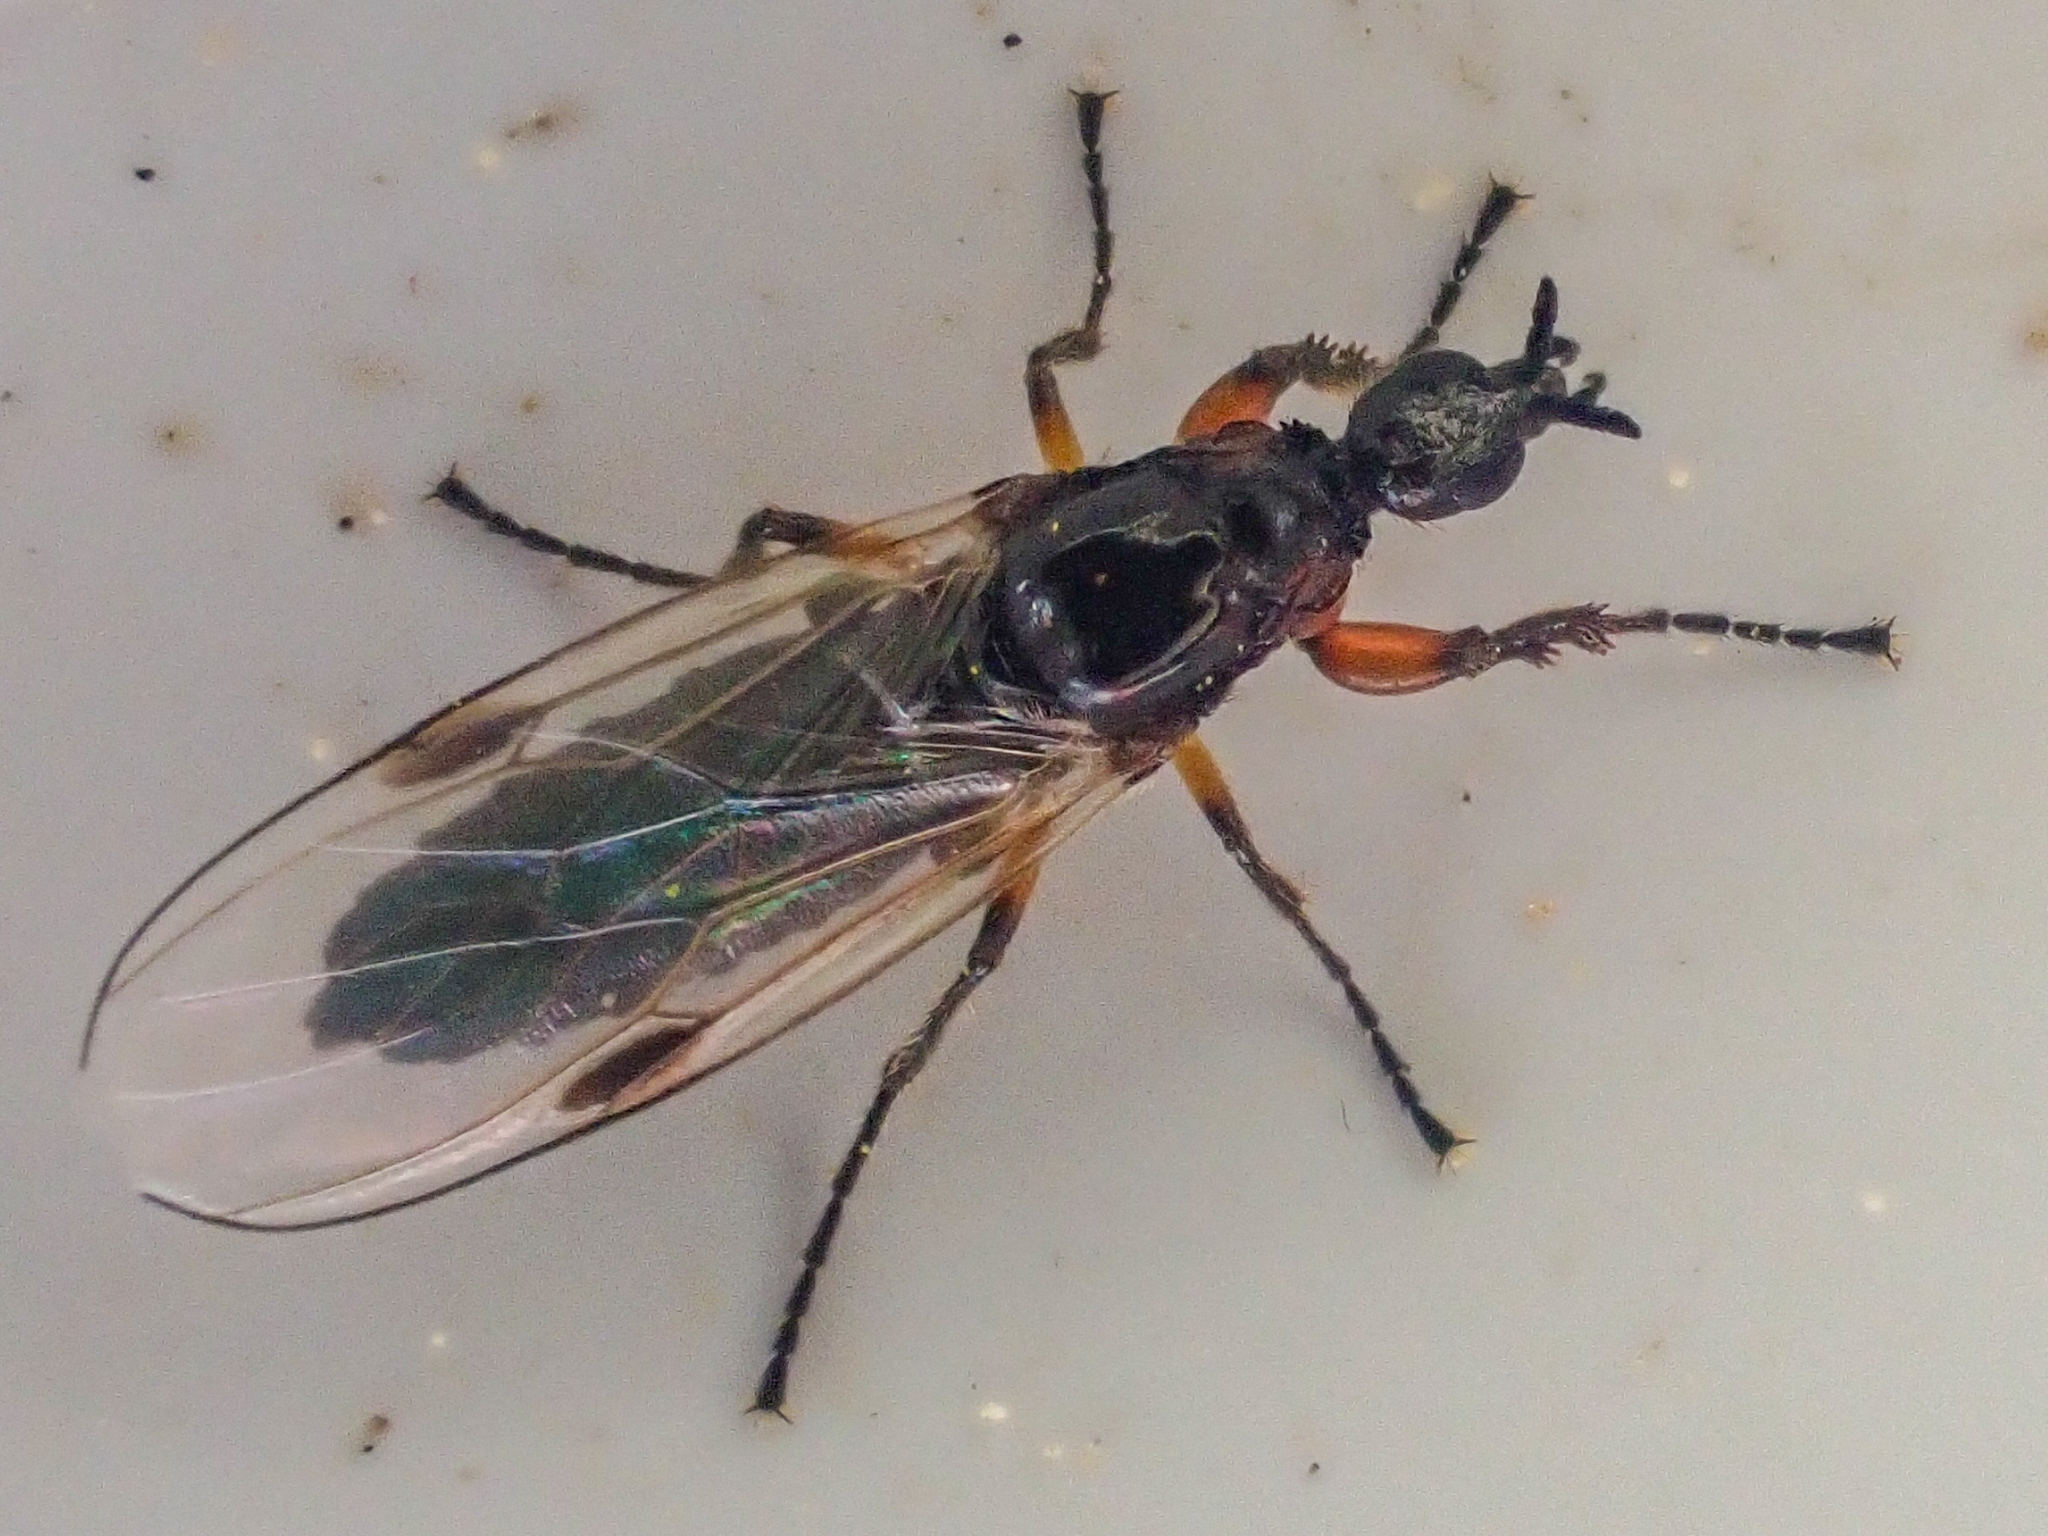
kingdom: Animalia
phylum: Arthropoda
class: Insecta
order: Diptera
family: Bibionidae
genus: Dilophus
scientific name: Dilophus
